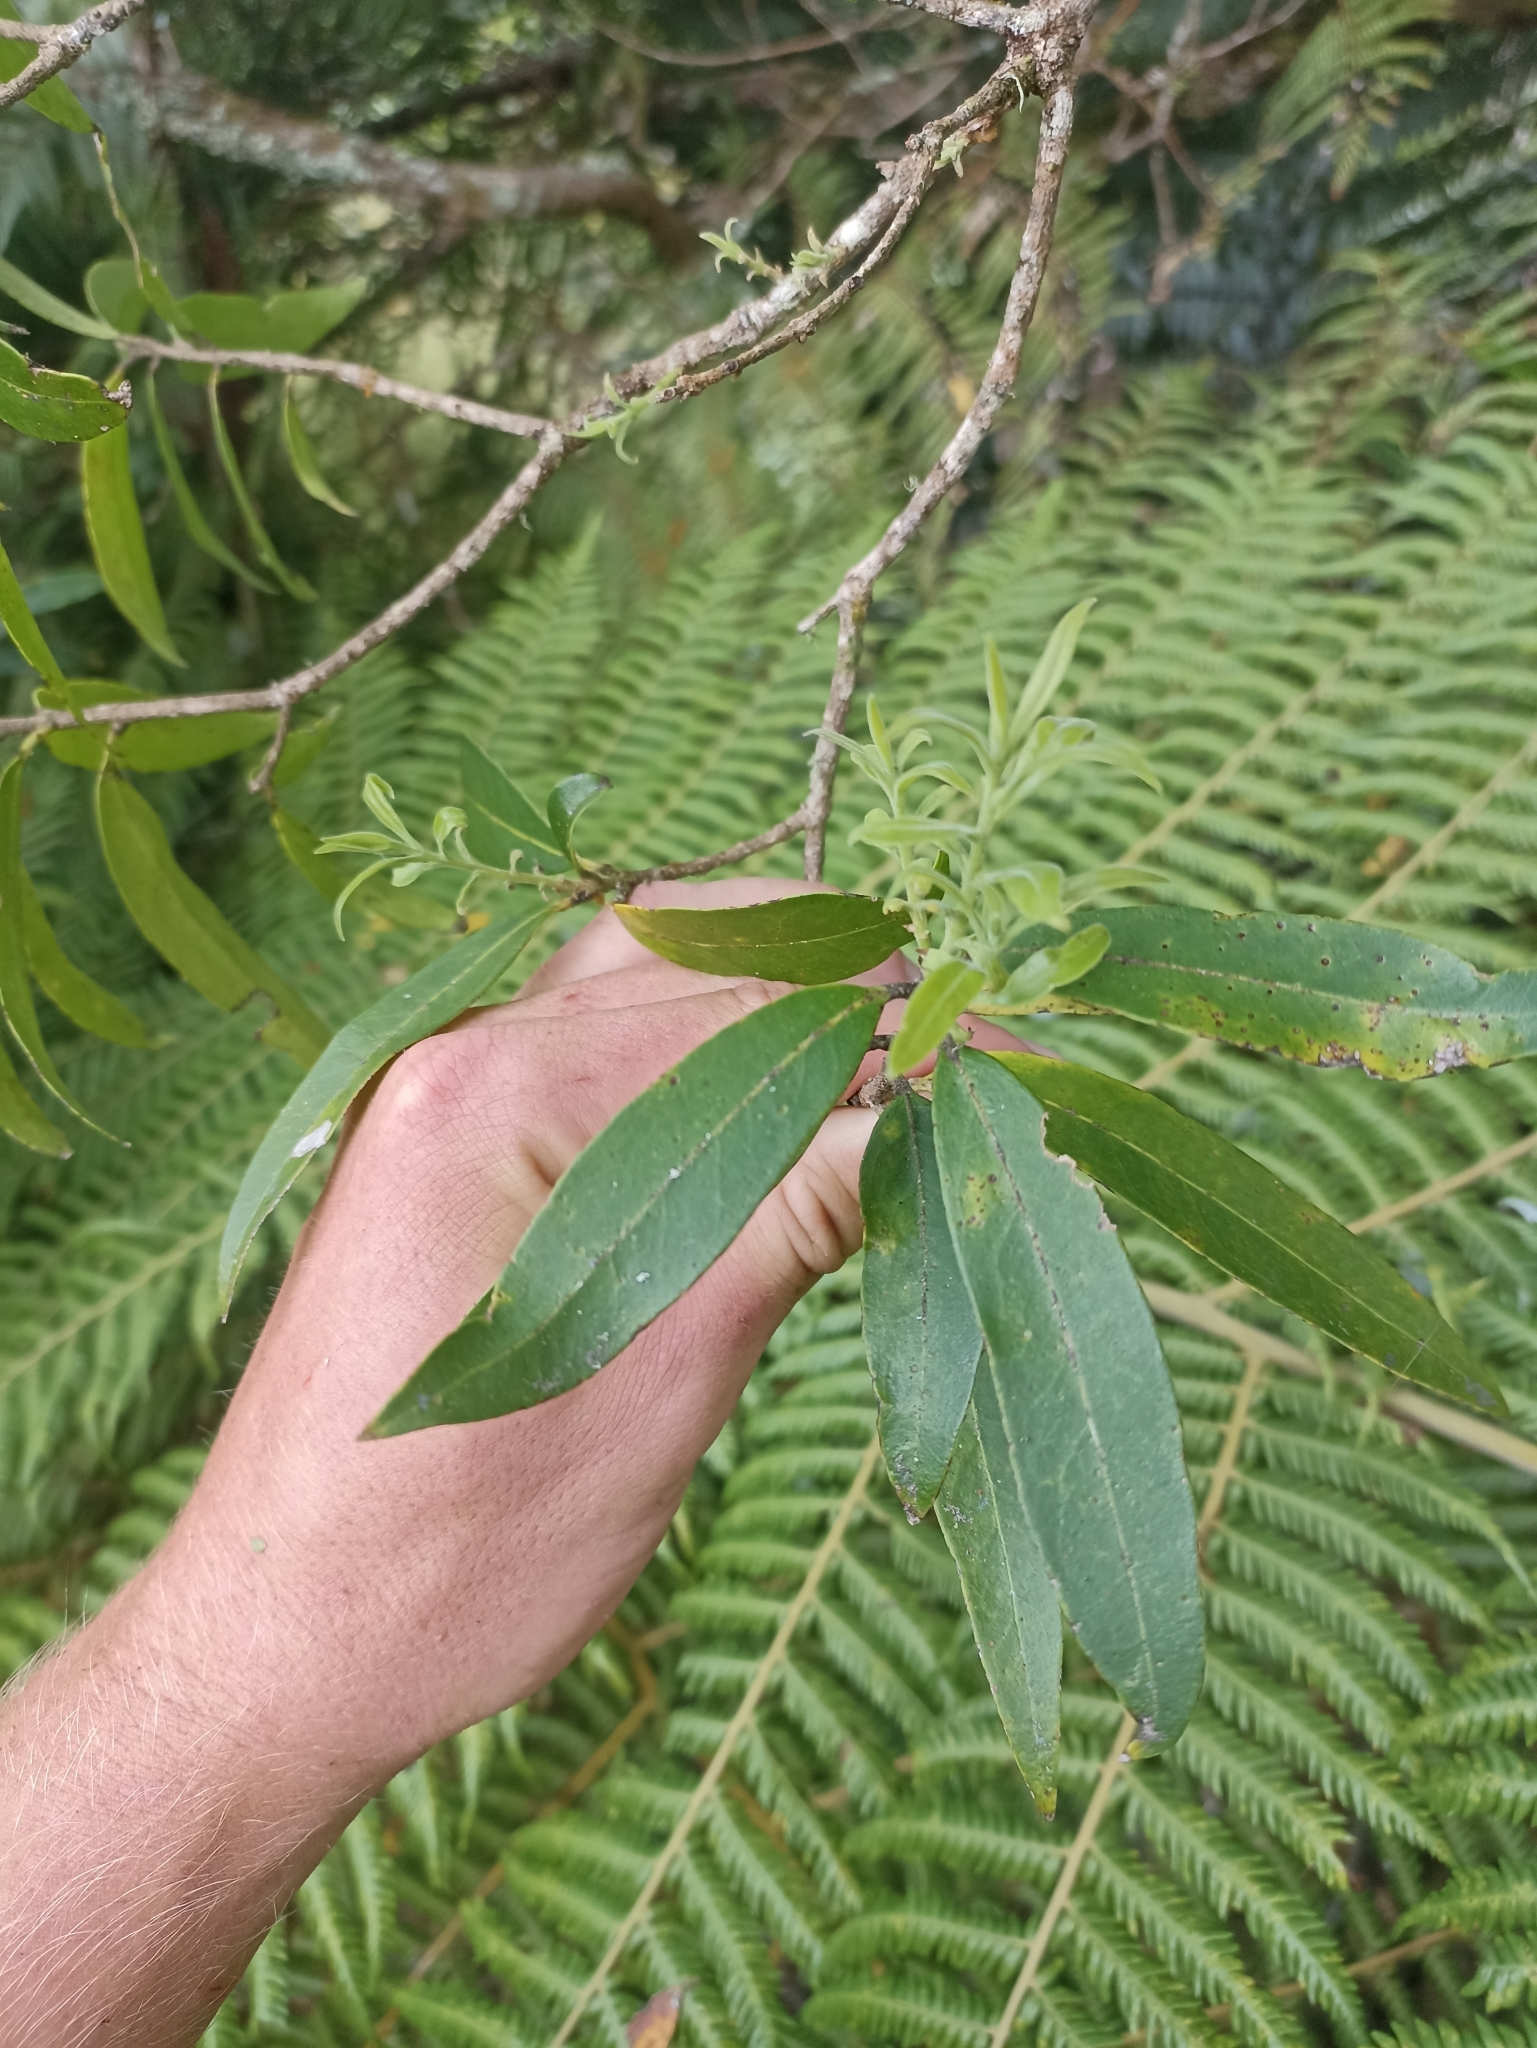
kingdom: Plantae
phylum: Tracheophyta
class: Magnoliopsida
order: Lamiales
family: Oleaceae
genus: Nestegis
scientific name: Nestegis lanceolata
